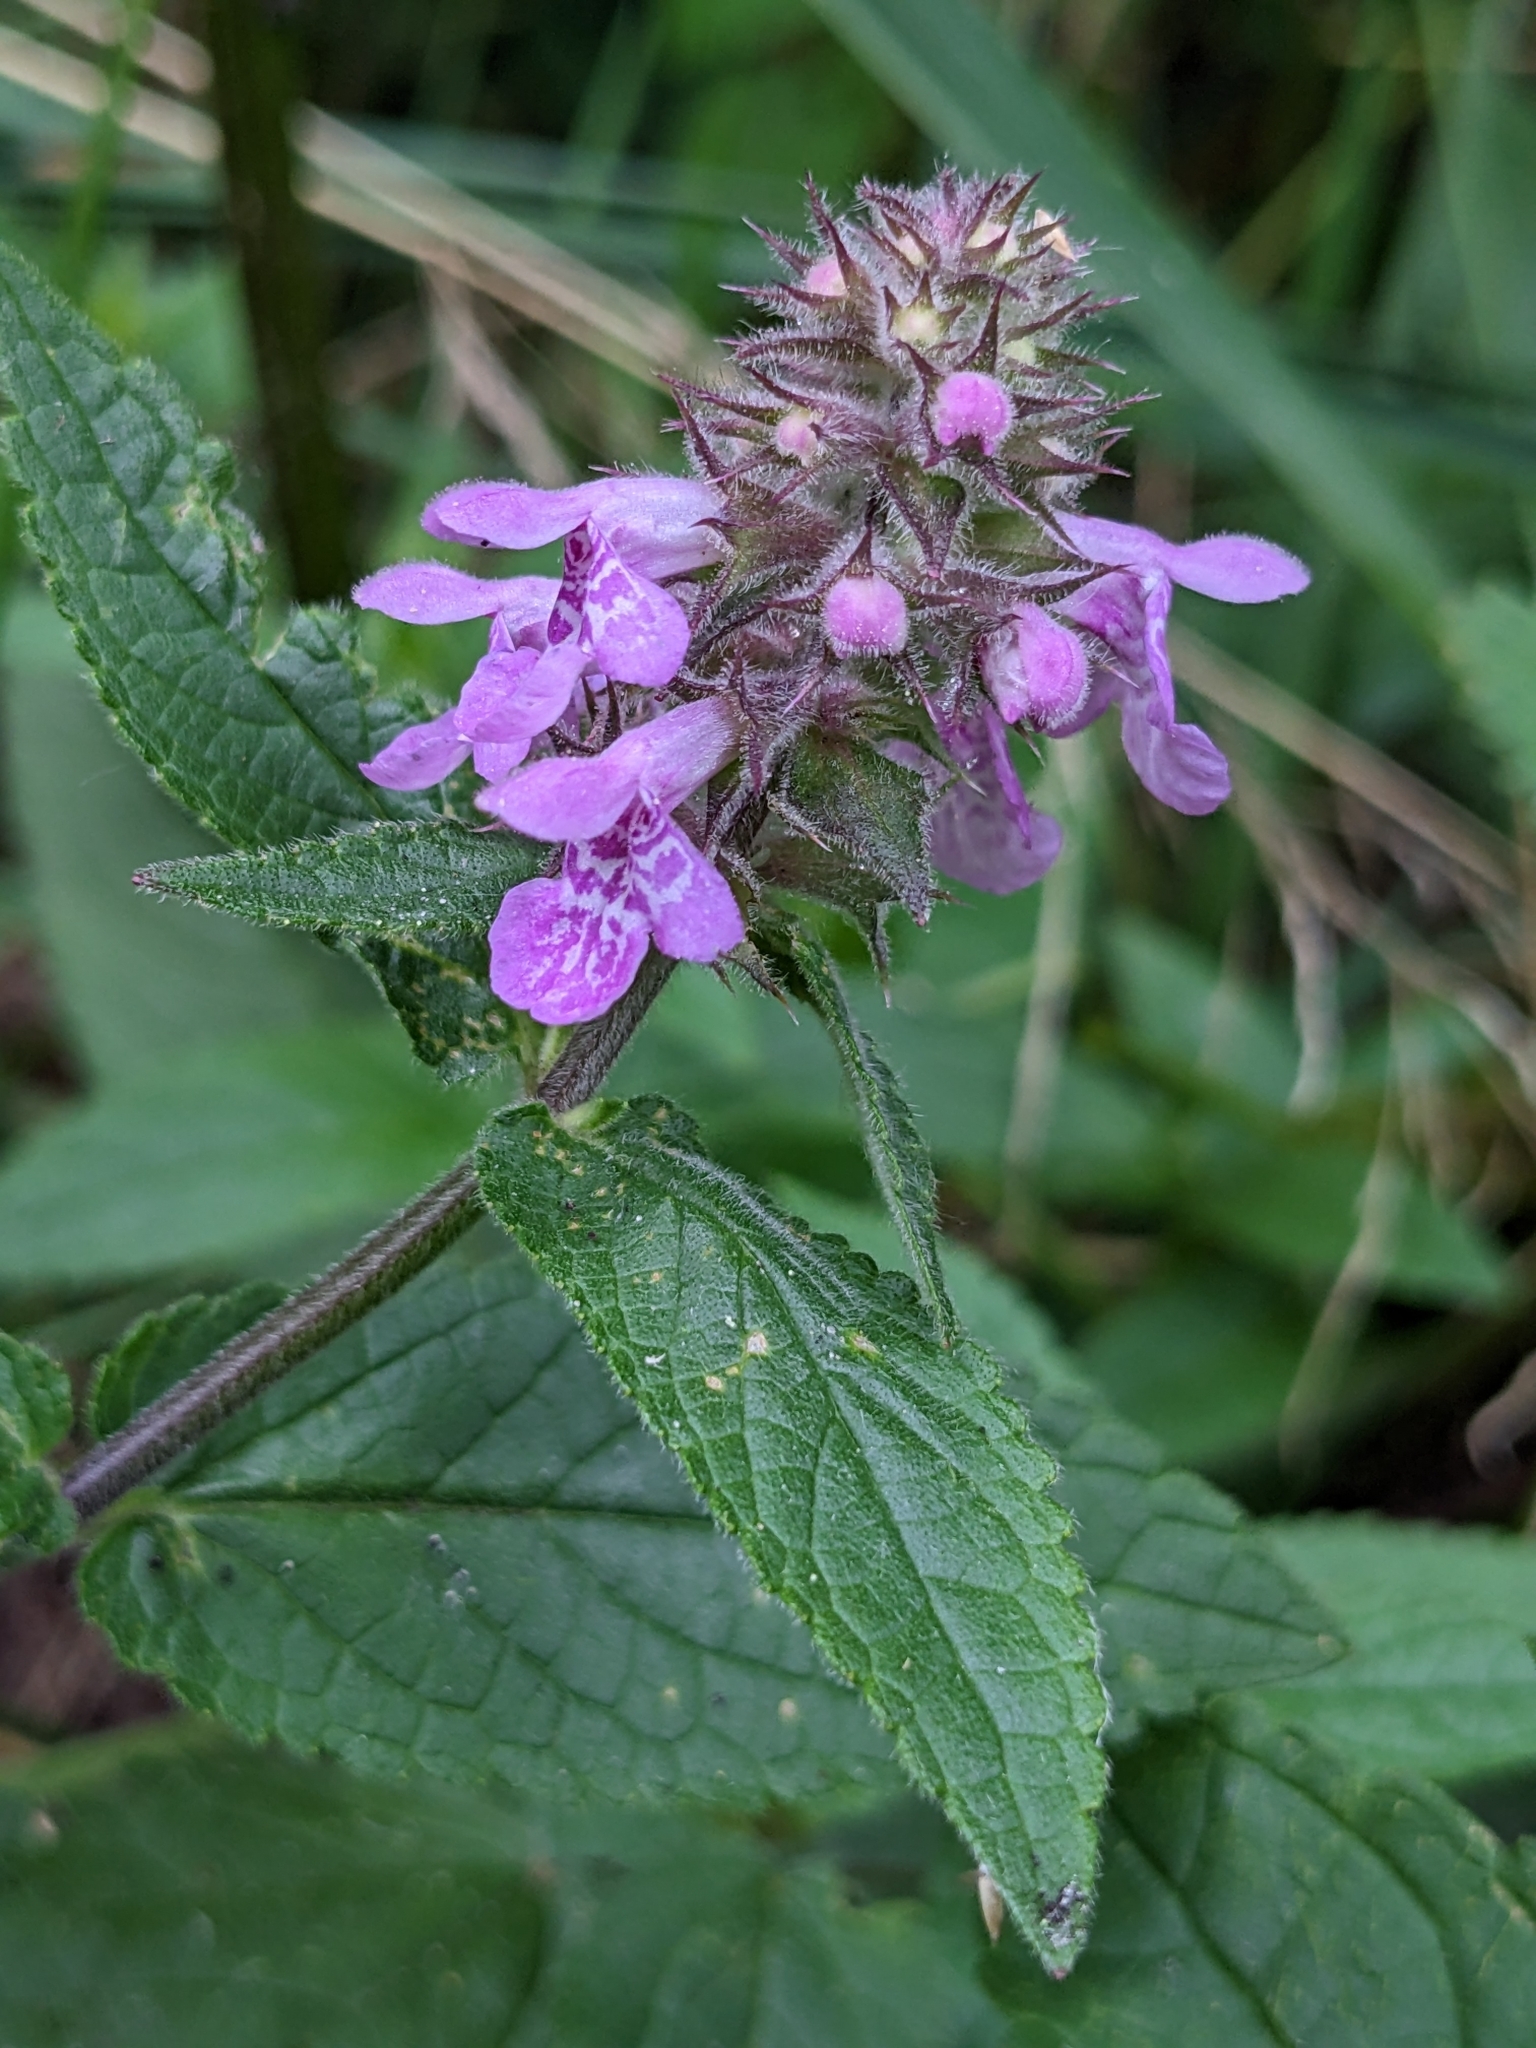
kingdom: Plantae
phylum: Tracheophyta
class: Magnoliopsida
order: Lamiales
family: Lamiaceae
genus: Stachys
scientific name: Stachys palustris
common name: Marsh woundwort
